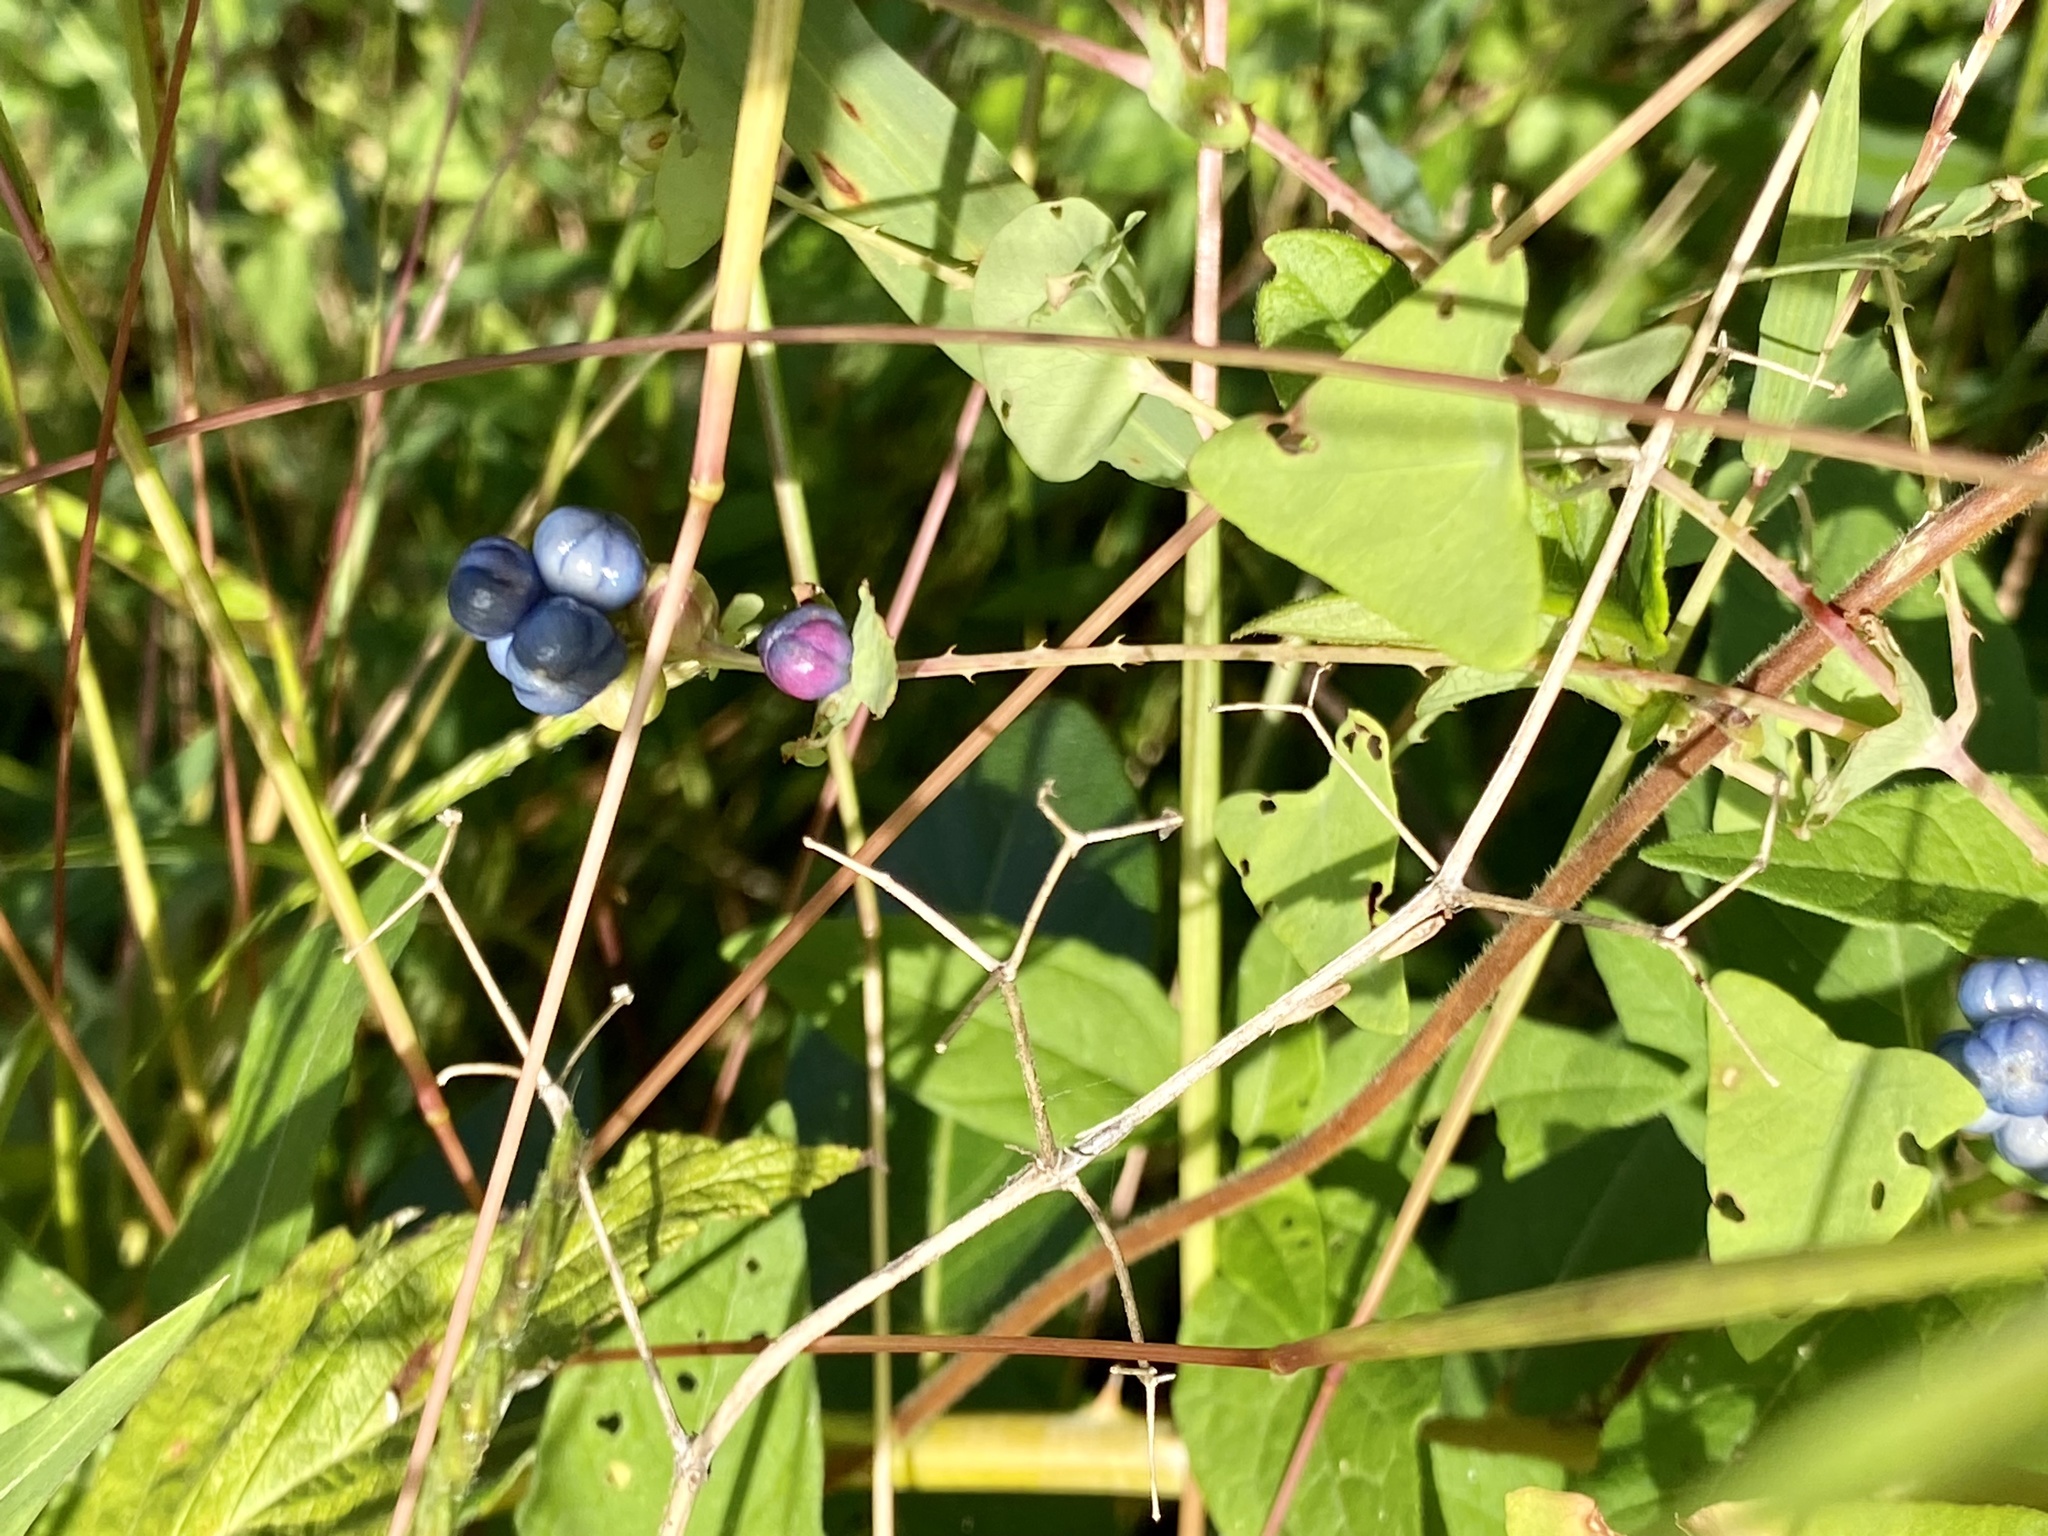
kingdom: Plantae
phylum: Tracheophyta
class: Magnoliopsida
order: Caryophyllales
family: Polygonaceae
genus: Persicaria
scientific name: Persicaria perfoliata
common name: Asiatic tearthumb
